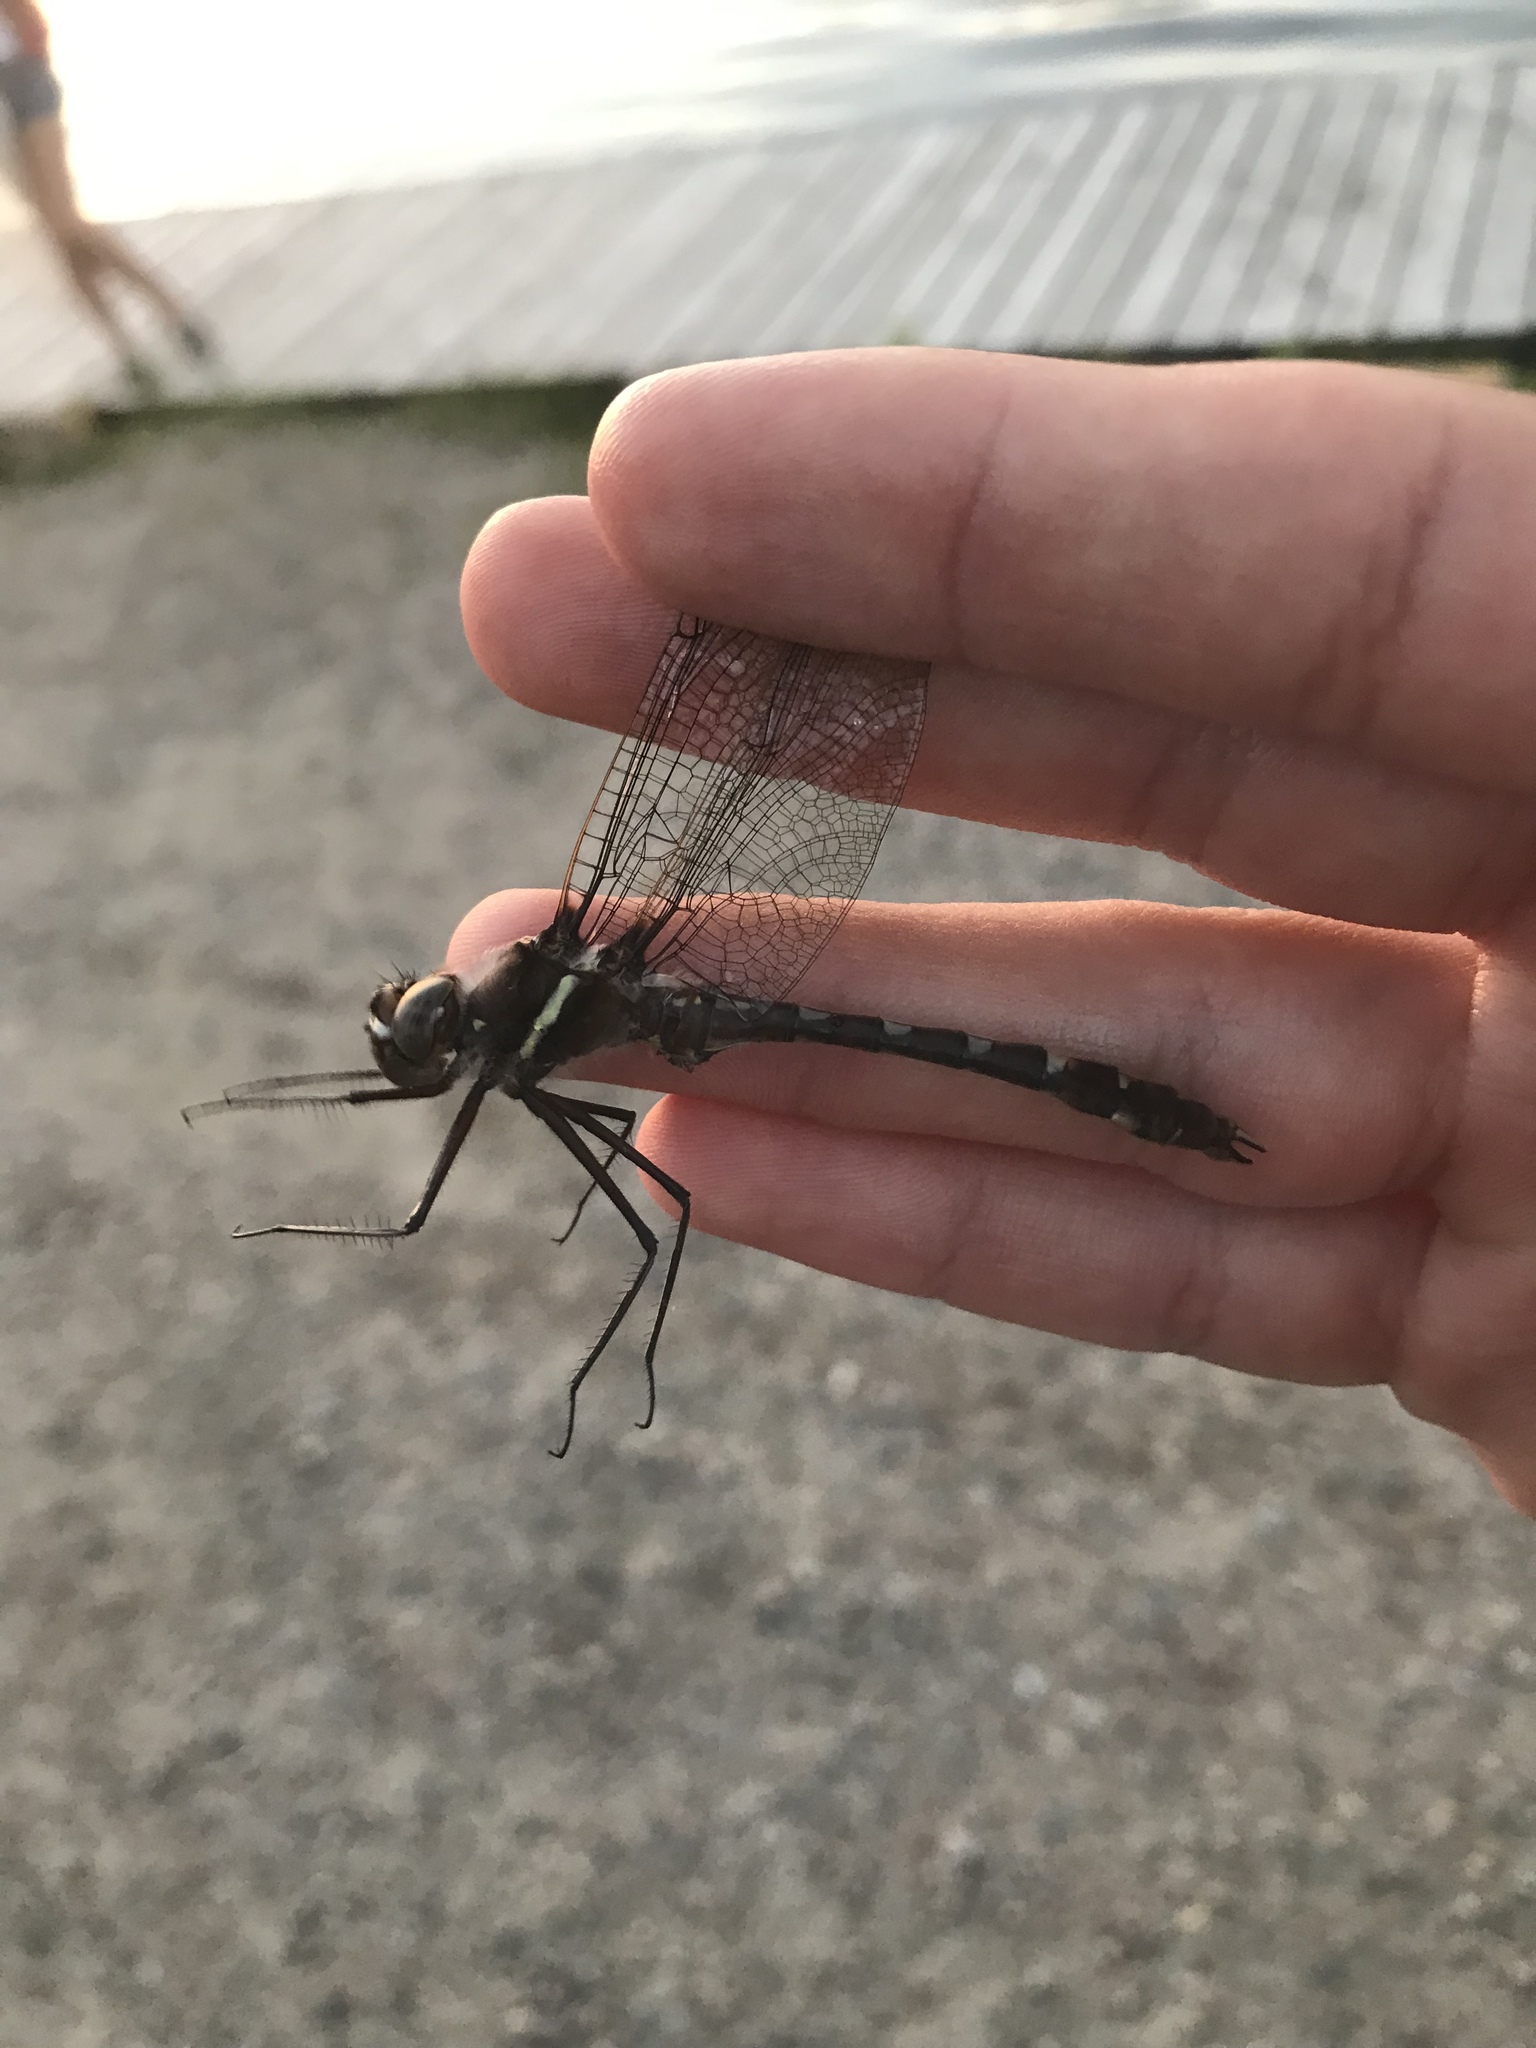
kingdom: Animalia
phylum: Arthropoda
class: Insecta
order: Odonata
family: Macromiidae
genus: Didymops
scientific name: Didymops transversa
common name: Stream cruiser
